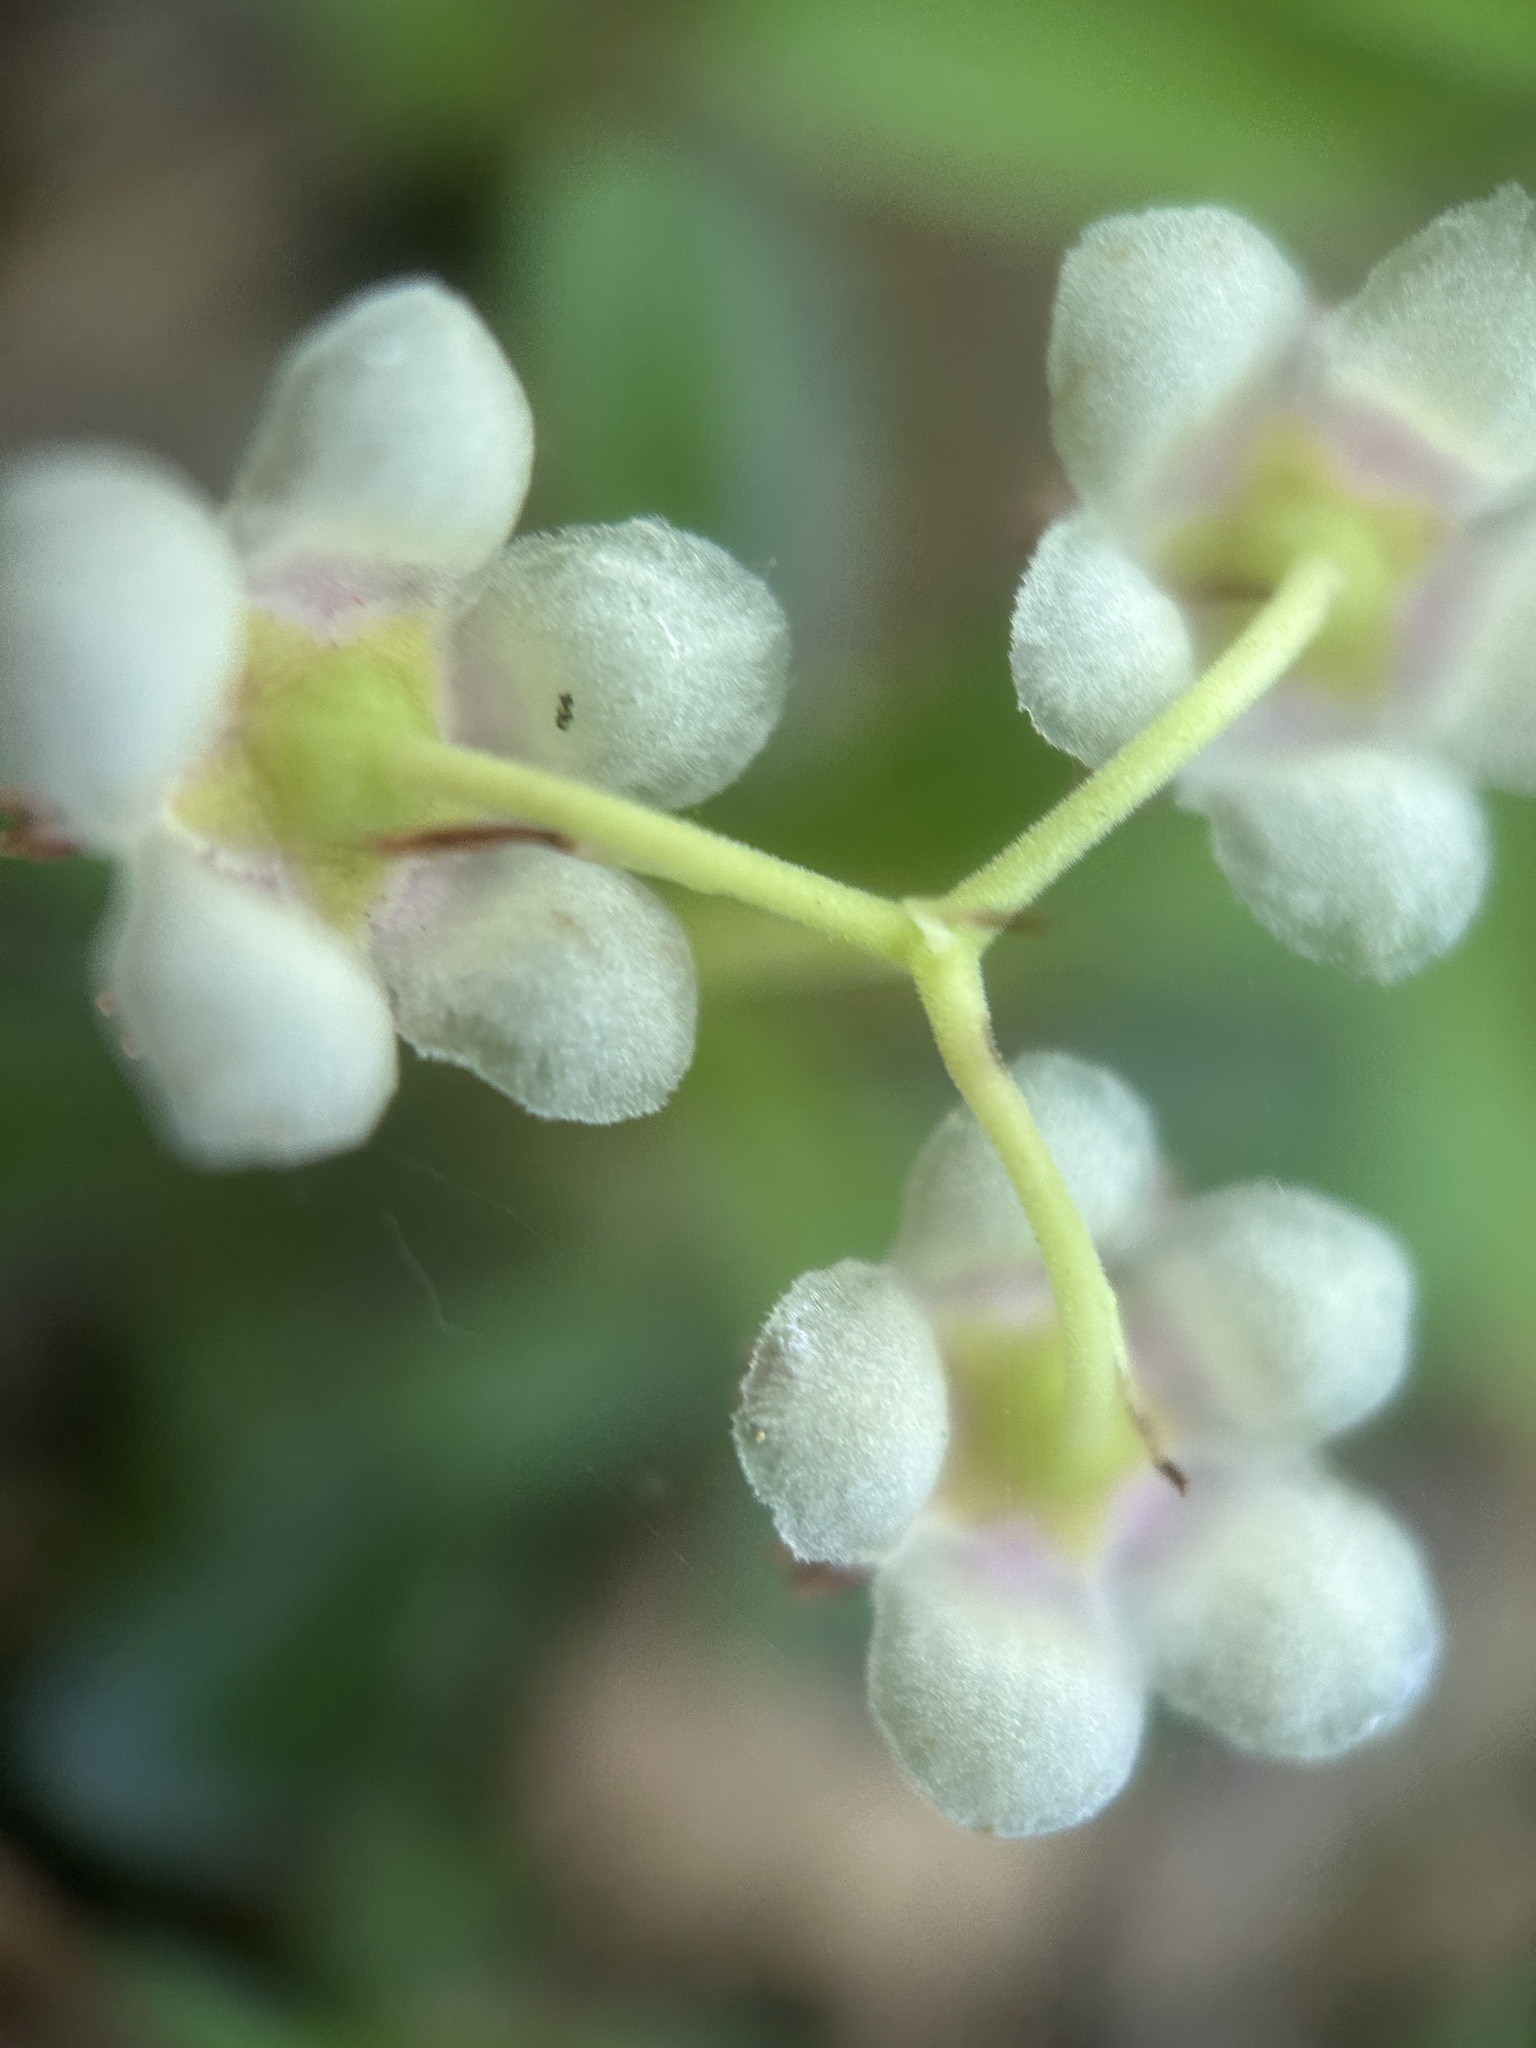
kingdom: Plantae
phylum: Tracheophyta
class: Magnoliopsida
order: Ericales
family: Ericaceae
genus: Chimaphila
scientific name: Chimaphila umbellata
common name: Pipsissewa
